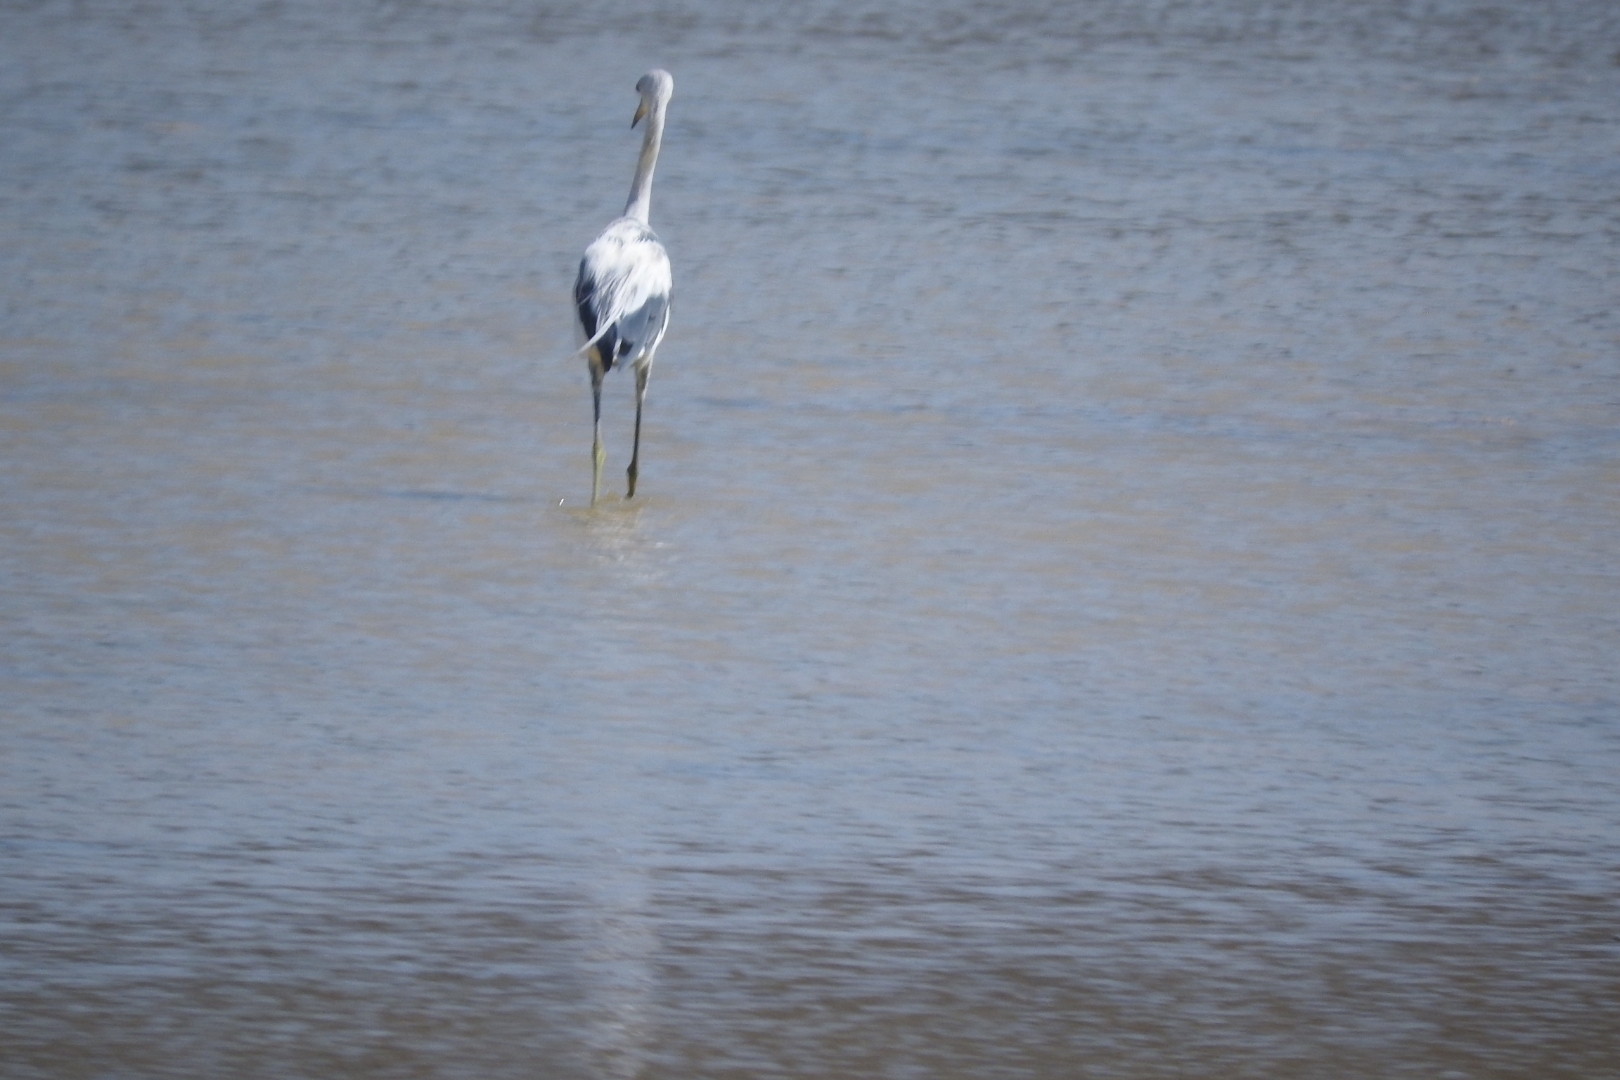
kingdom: Animalia
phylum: Chordata
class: Aves
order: Pelecaniformes
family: Ardeidae
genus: Egretta
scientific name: Egretta caerulea
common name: Little blue heron
